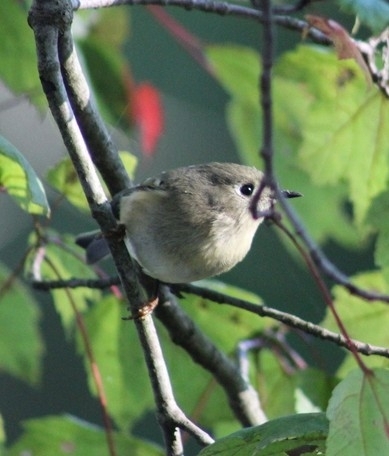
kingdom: Animalia
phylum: Chordata
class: Aves
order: Passeriformes
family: Regulidae
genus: Regulus
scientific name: Regulus calendula
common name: Ruby-crowned kinglet
